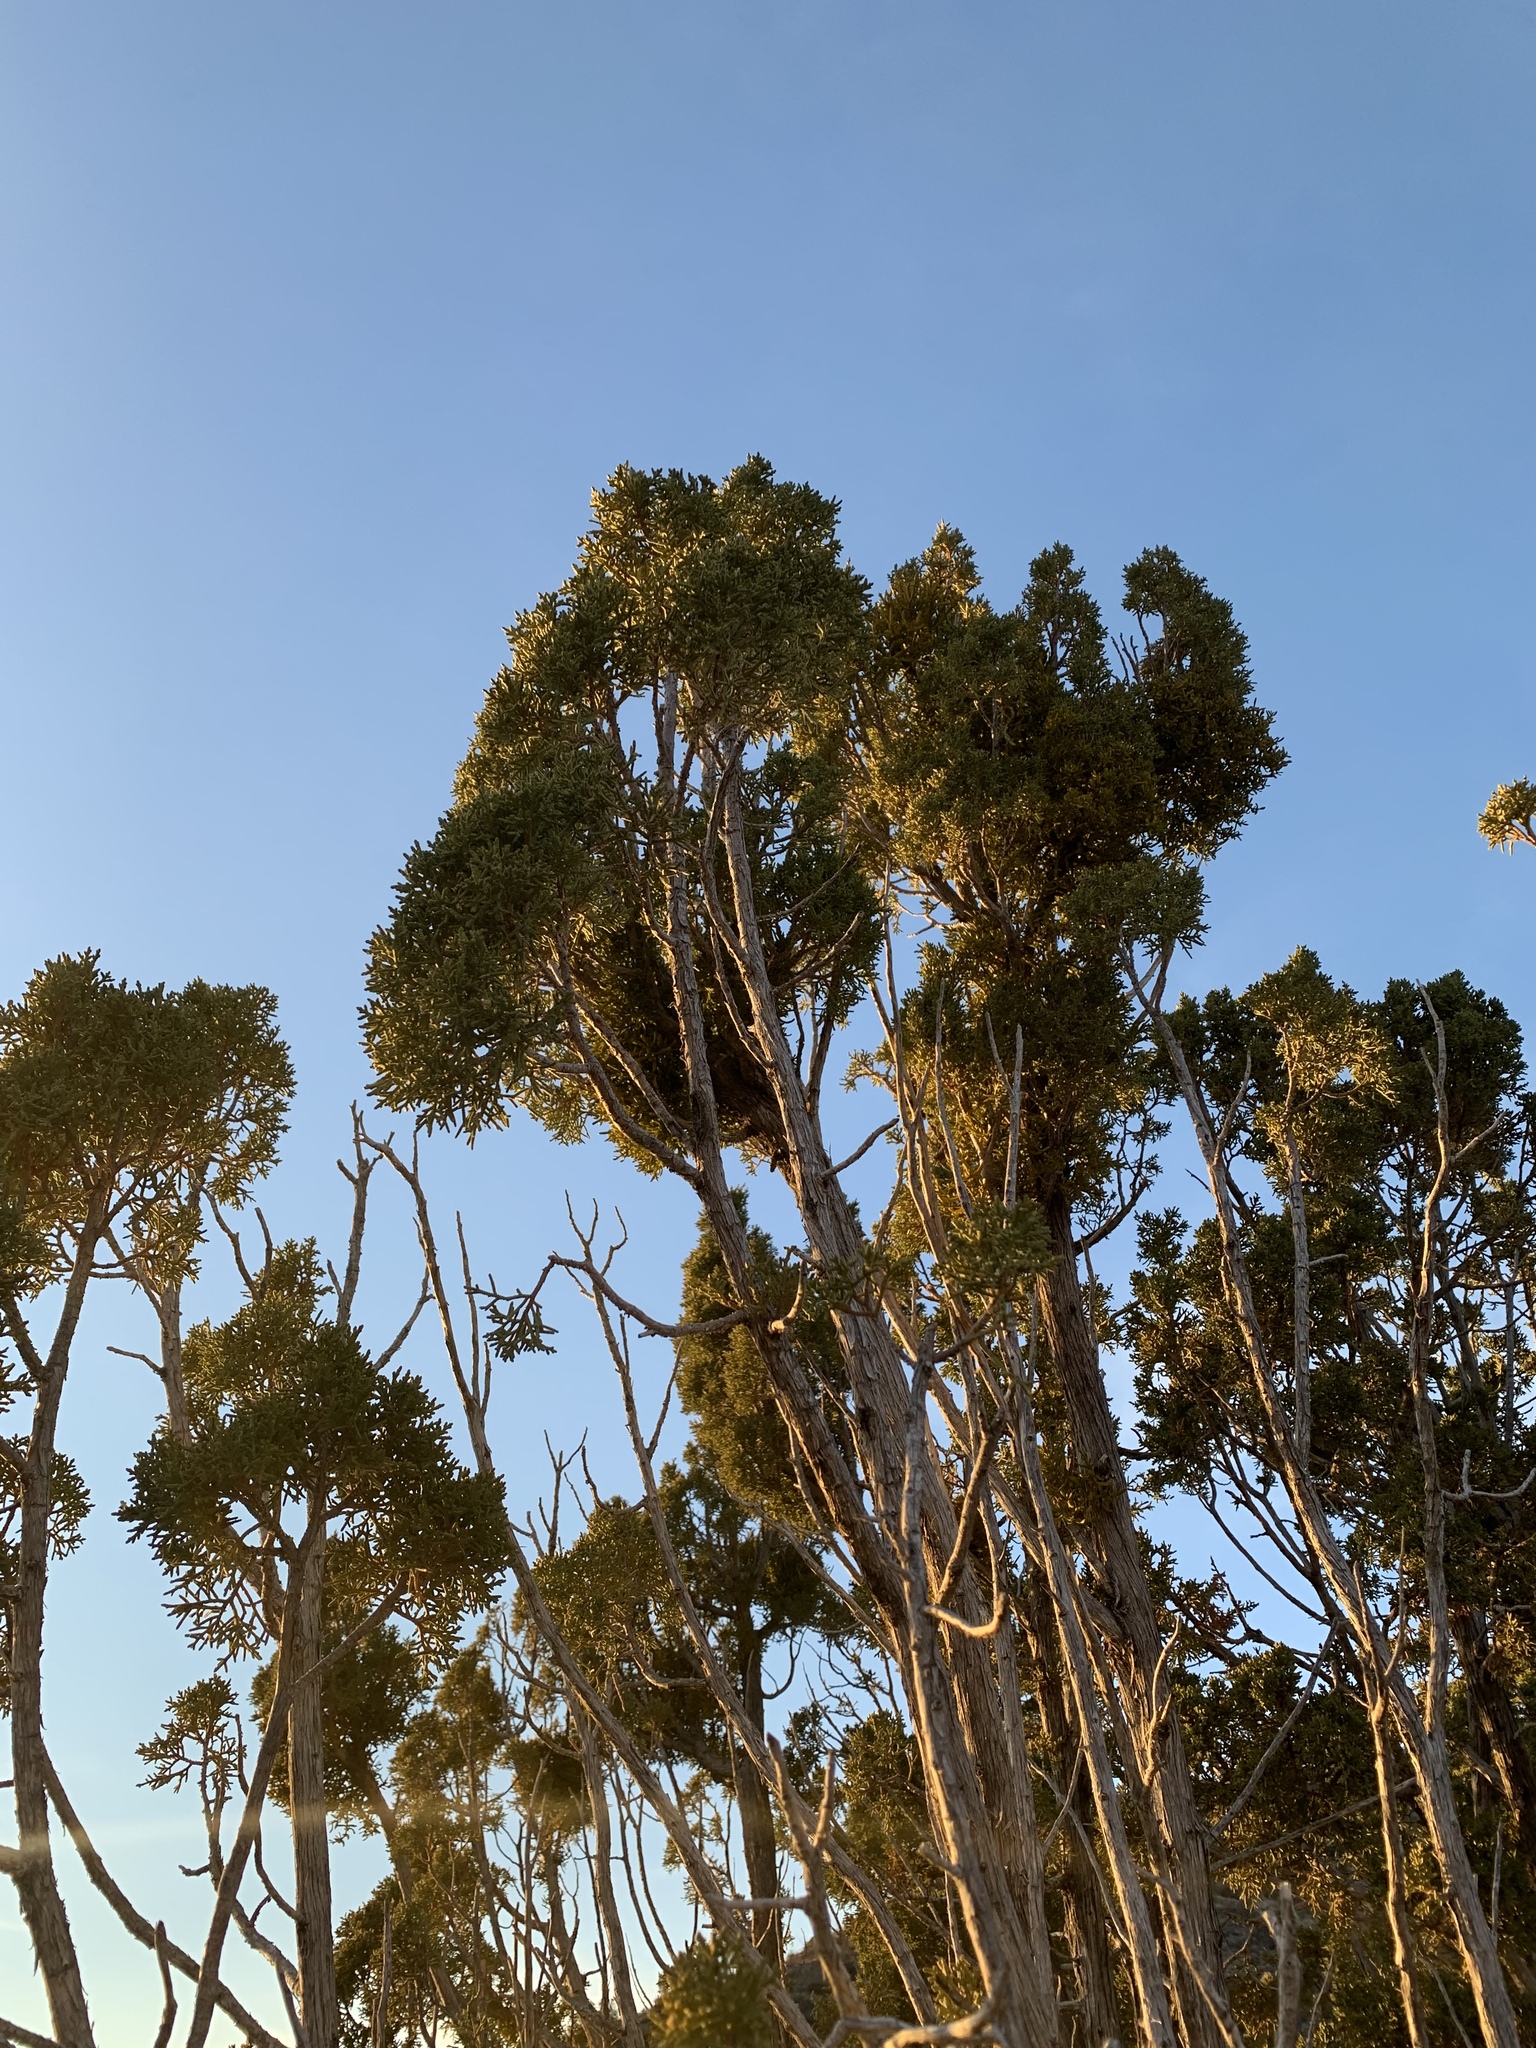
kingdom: Plantae
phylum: Tracheophyta
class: Pinopsida
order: Pinales
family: Cupressaceae
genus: Juniperus
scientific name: Juniperus monosperma
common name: One-seed juniper
